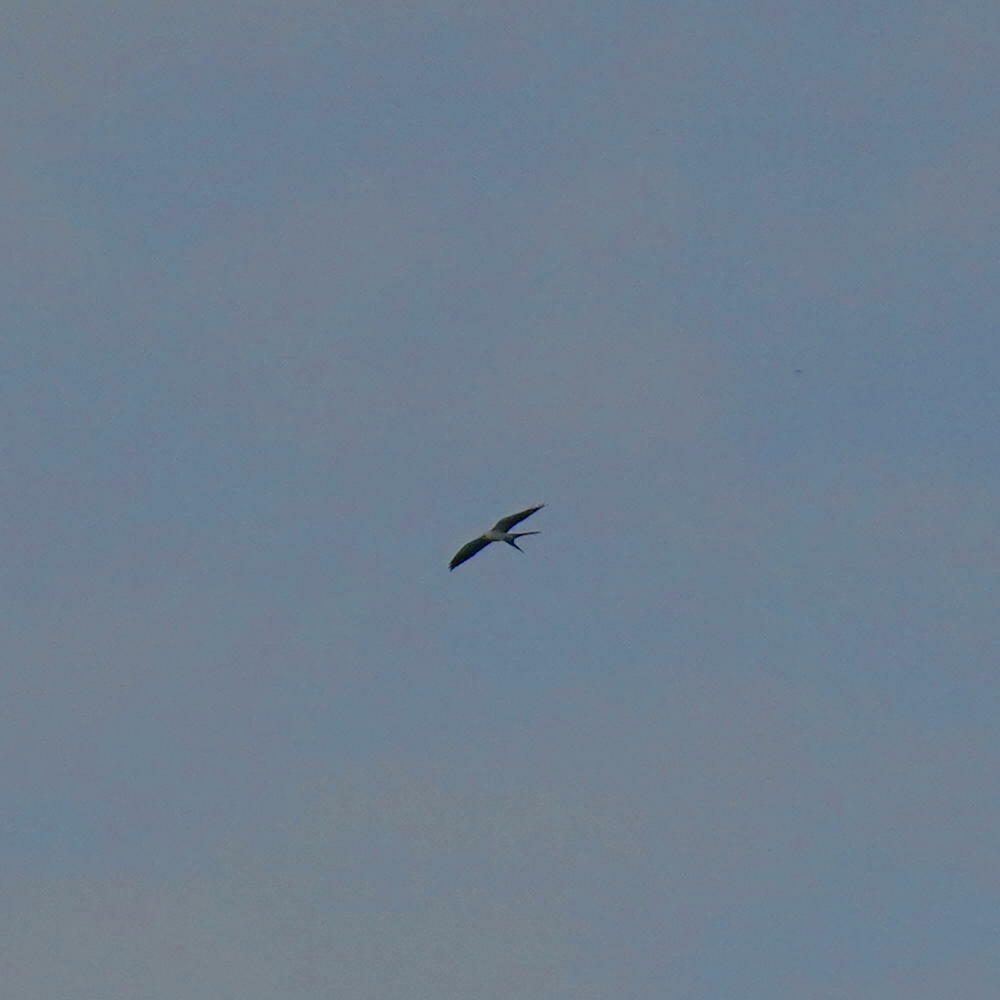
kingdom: Animalia
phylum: Chordata
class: Aves
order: Accipitriformes
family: Accipitridae
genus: Elanoides
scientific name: Elanoides forficatus
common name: Swallow-tailed kite
